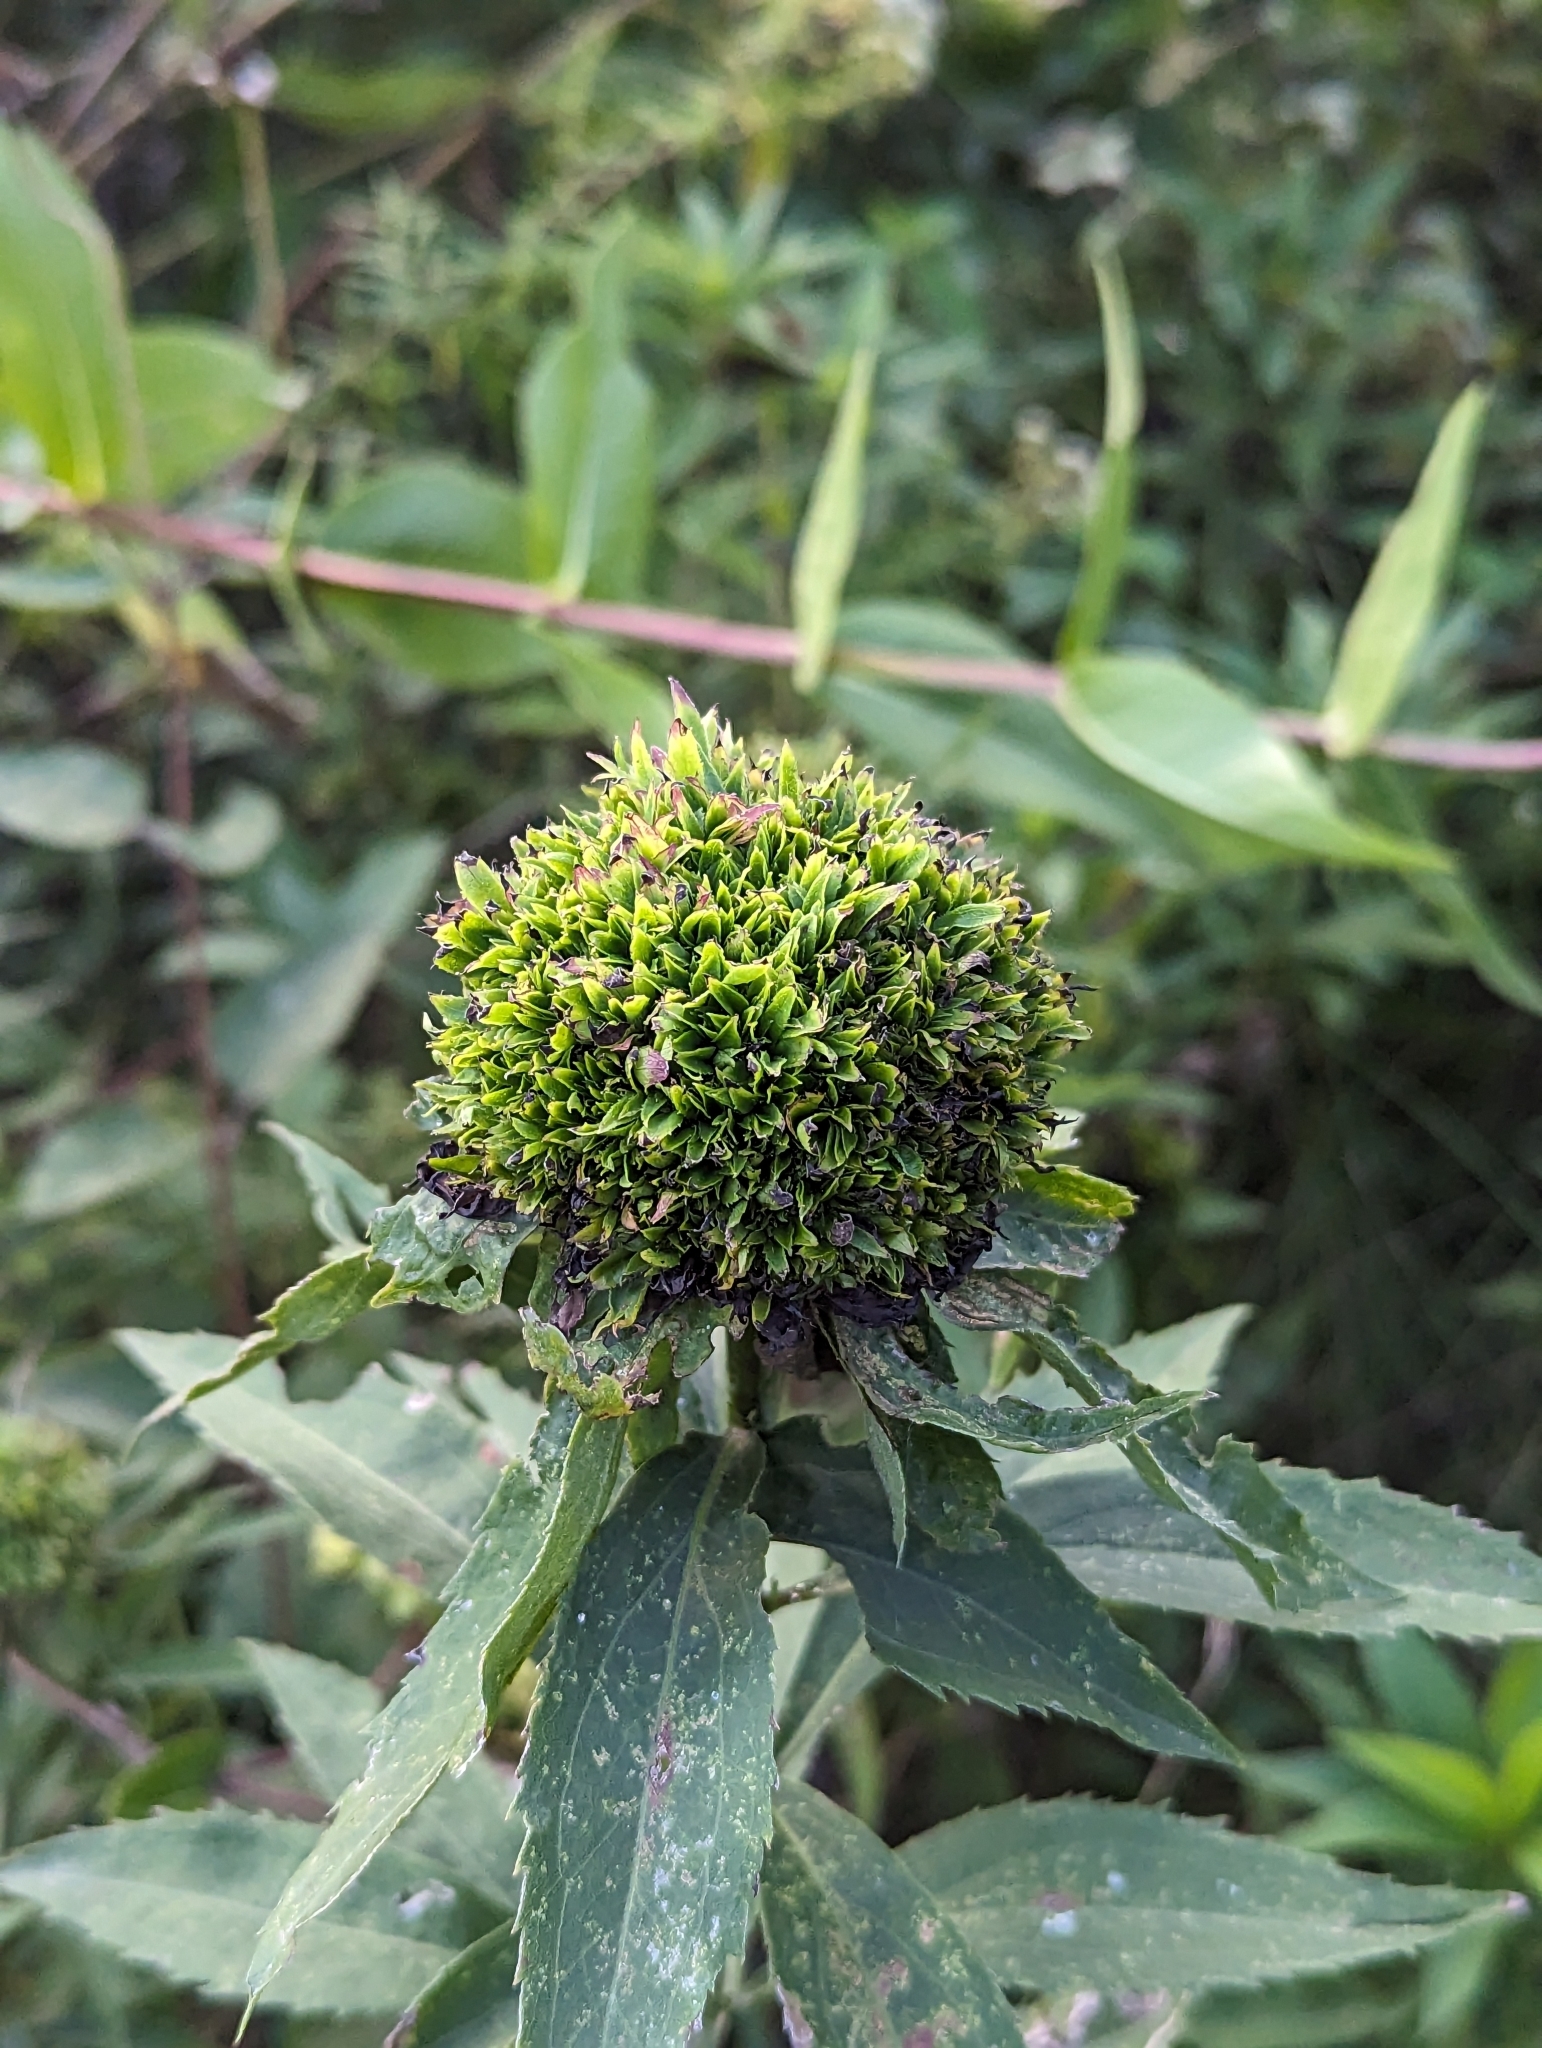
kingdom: Animalia
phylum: Arthropoda
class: Insecta
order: Diptera
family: Cecidomyiidae
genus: Rhopalomyia
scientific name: Rhopalomyia capitata
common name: Giant goldenrod bunch gall midge
